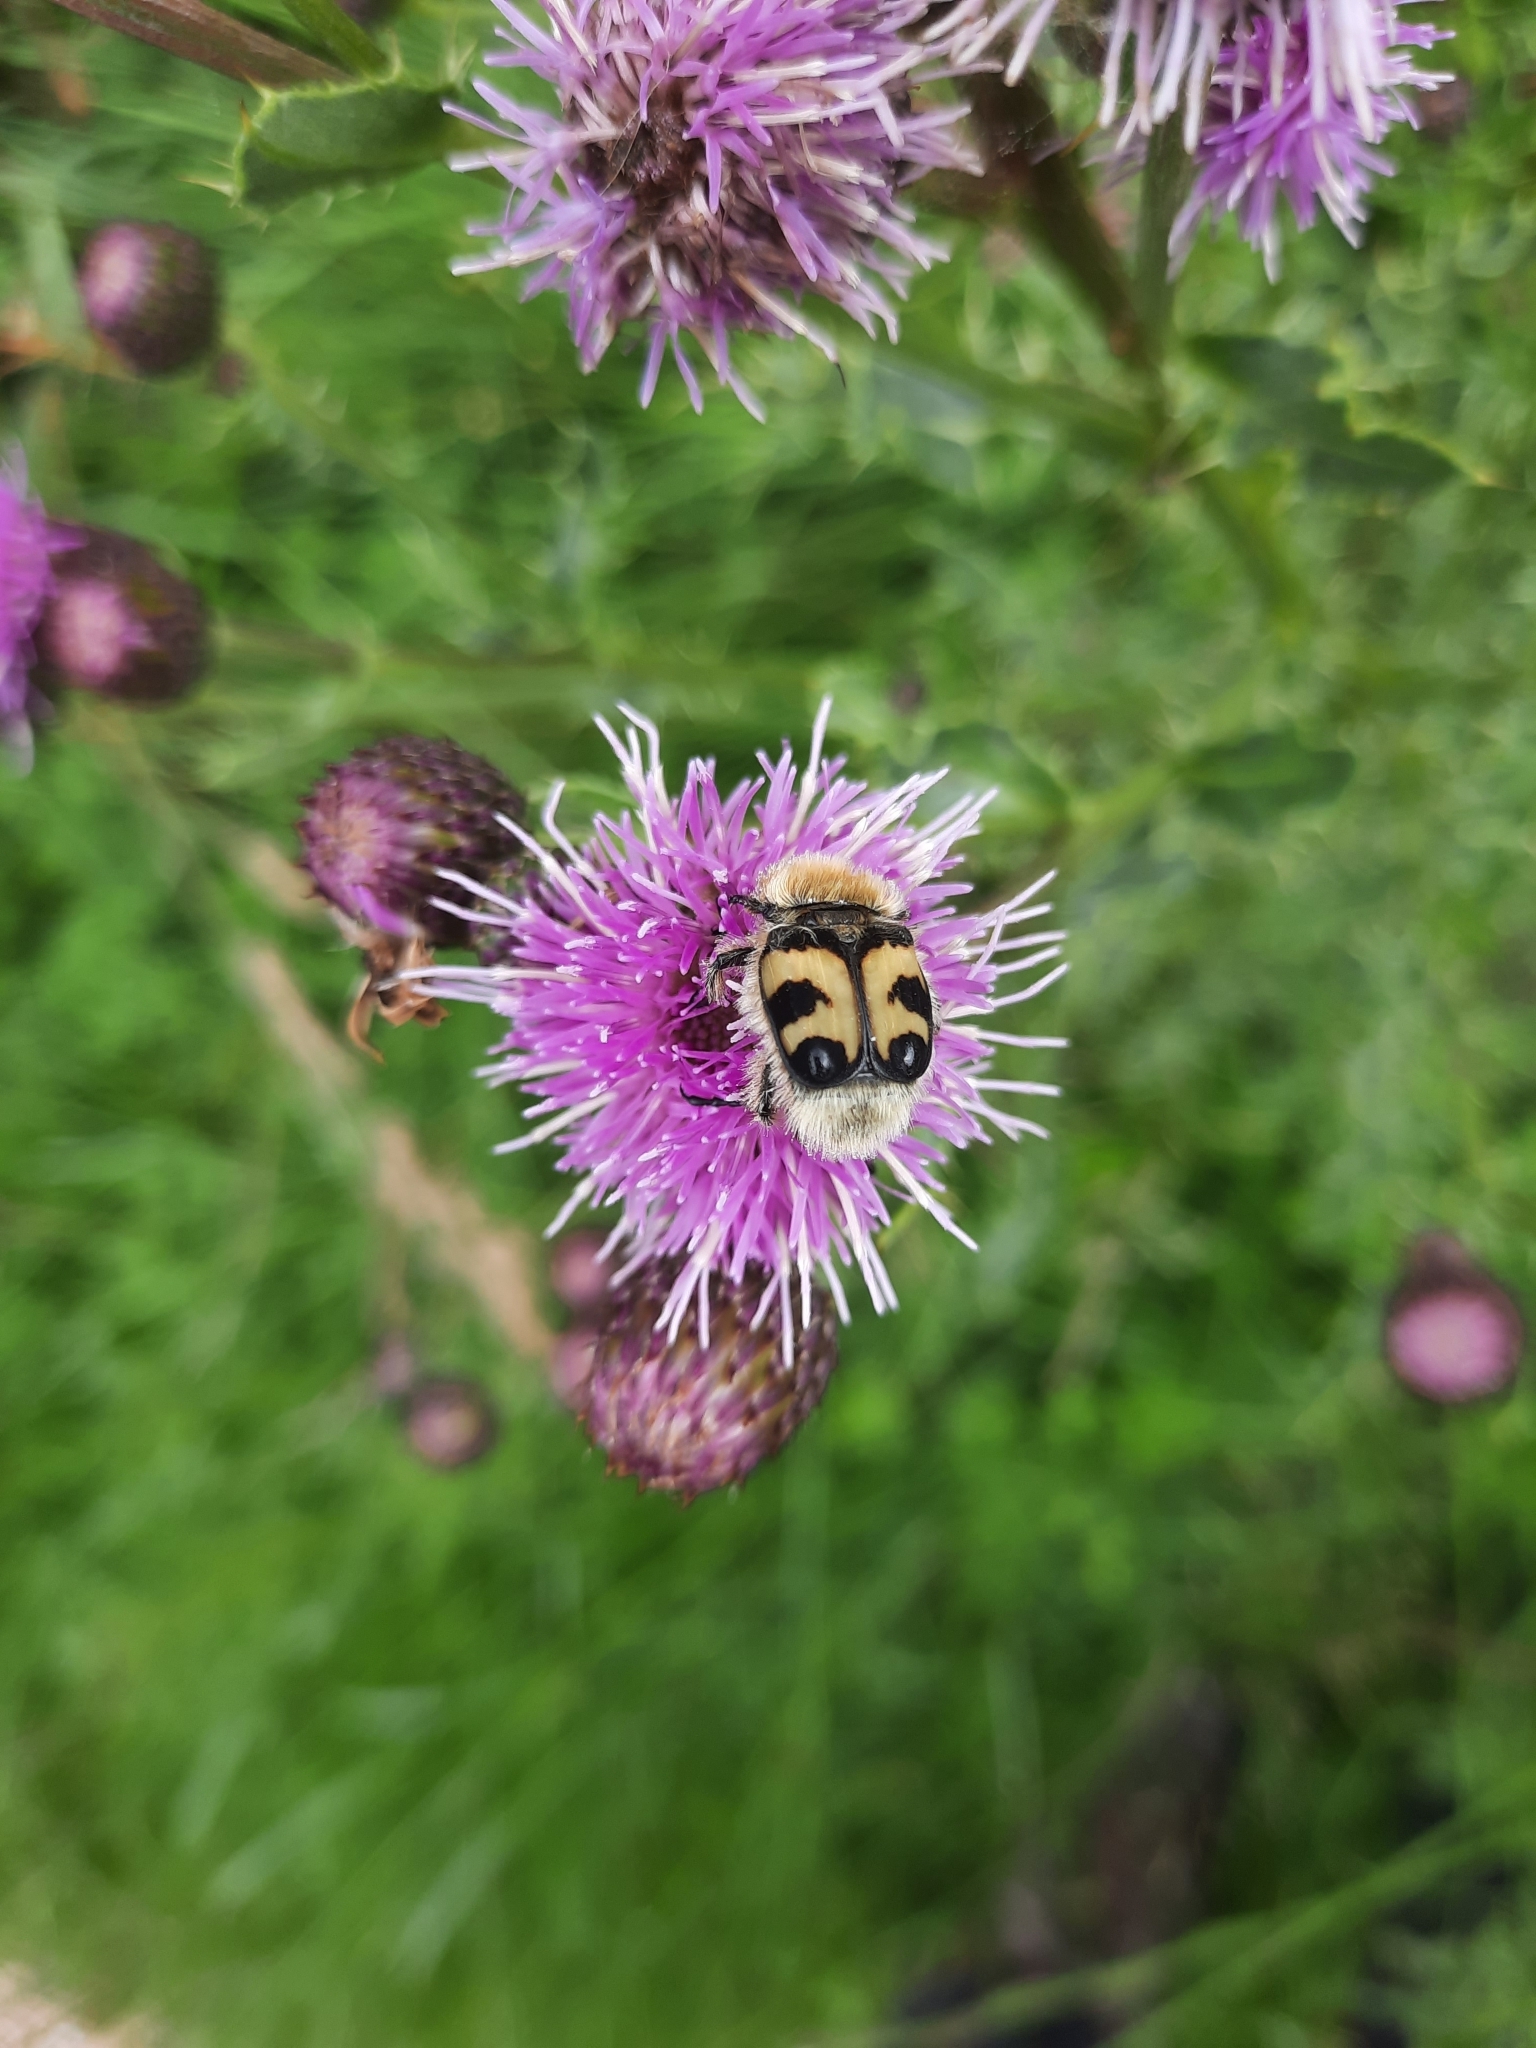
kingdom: Animalia
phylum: Arthropoda
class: Insecta
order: Coleoptera
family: Scarabaeidae
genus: Trichius
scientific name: Trichius fasciatus
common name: Bee beetle
